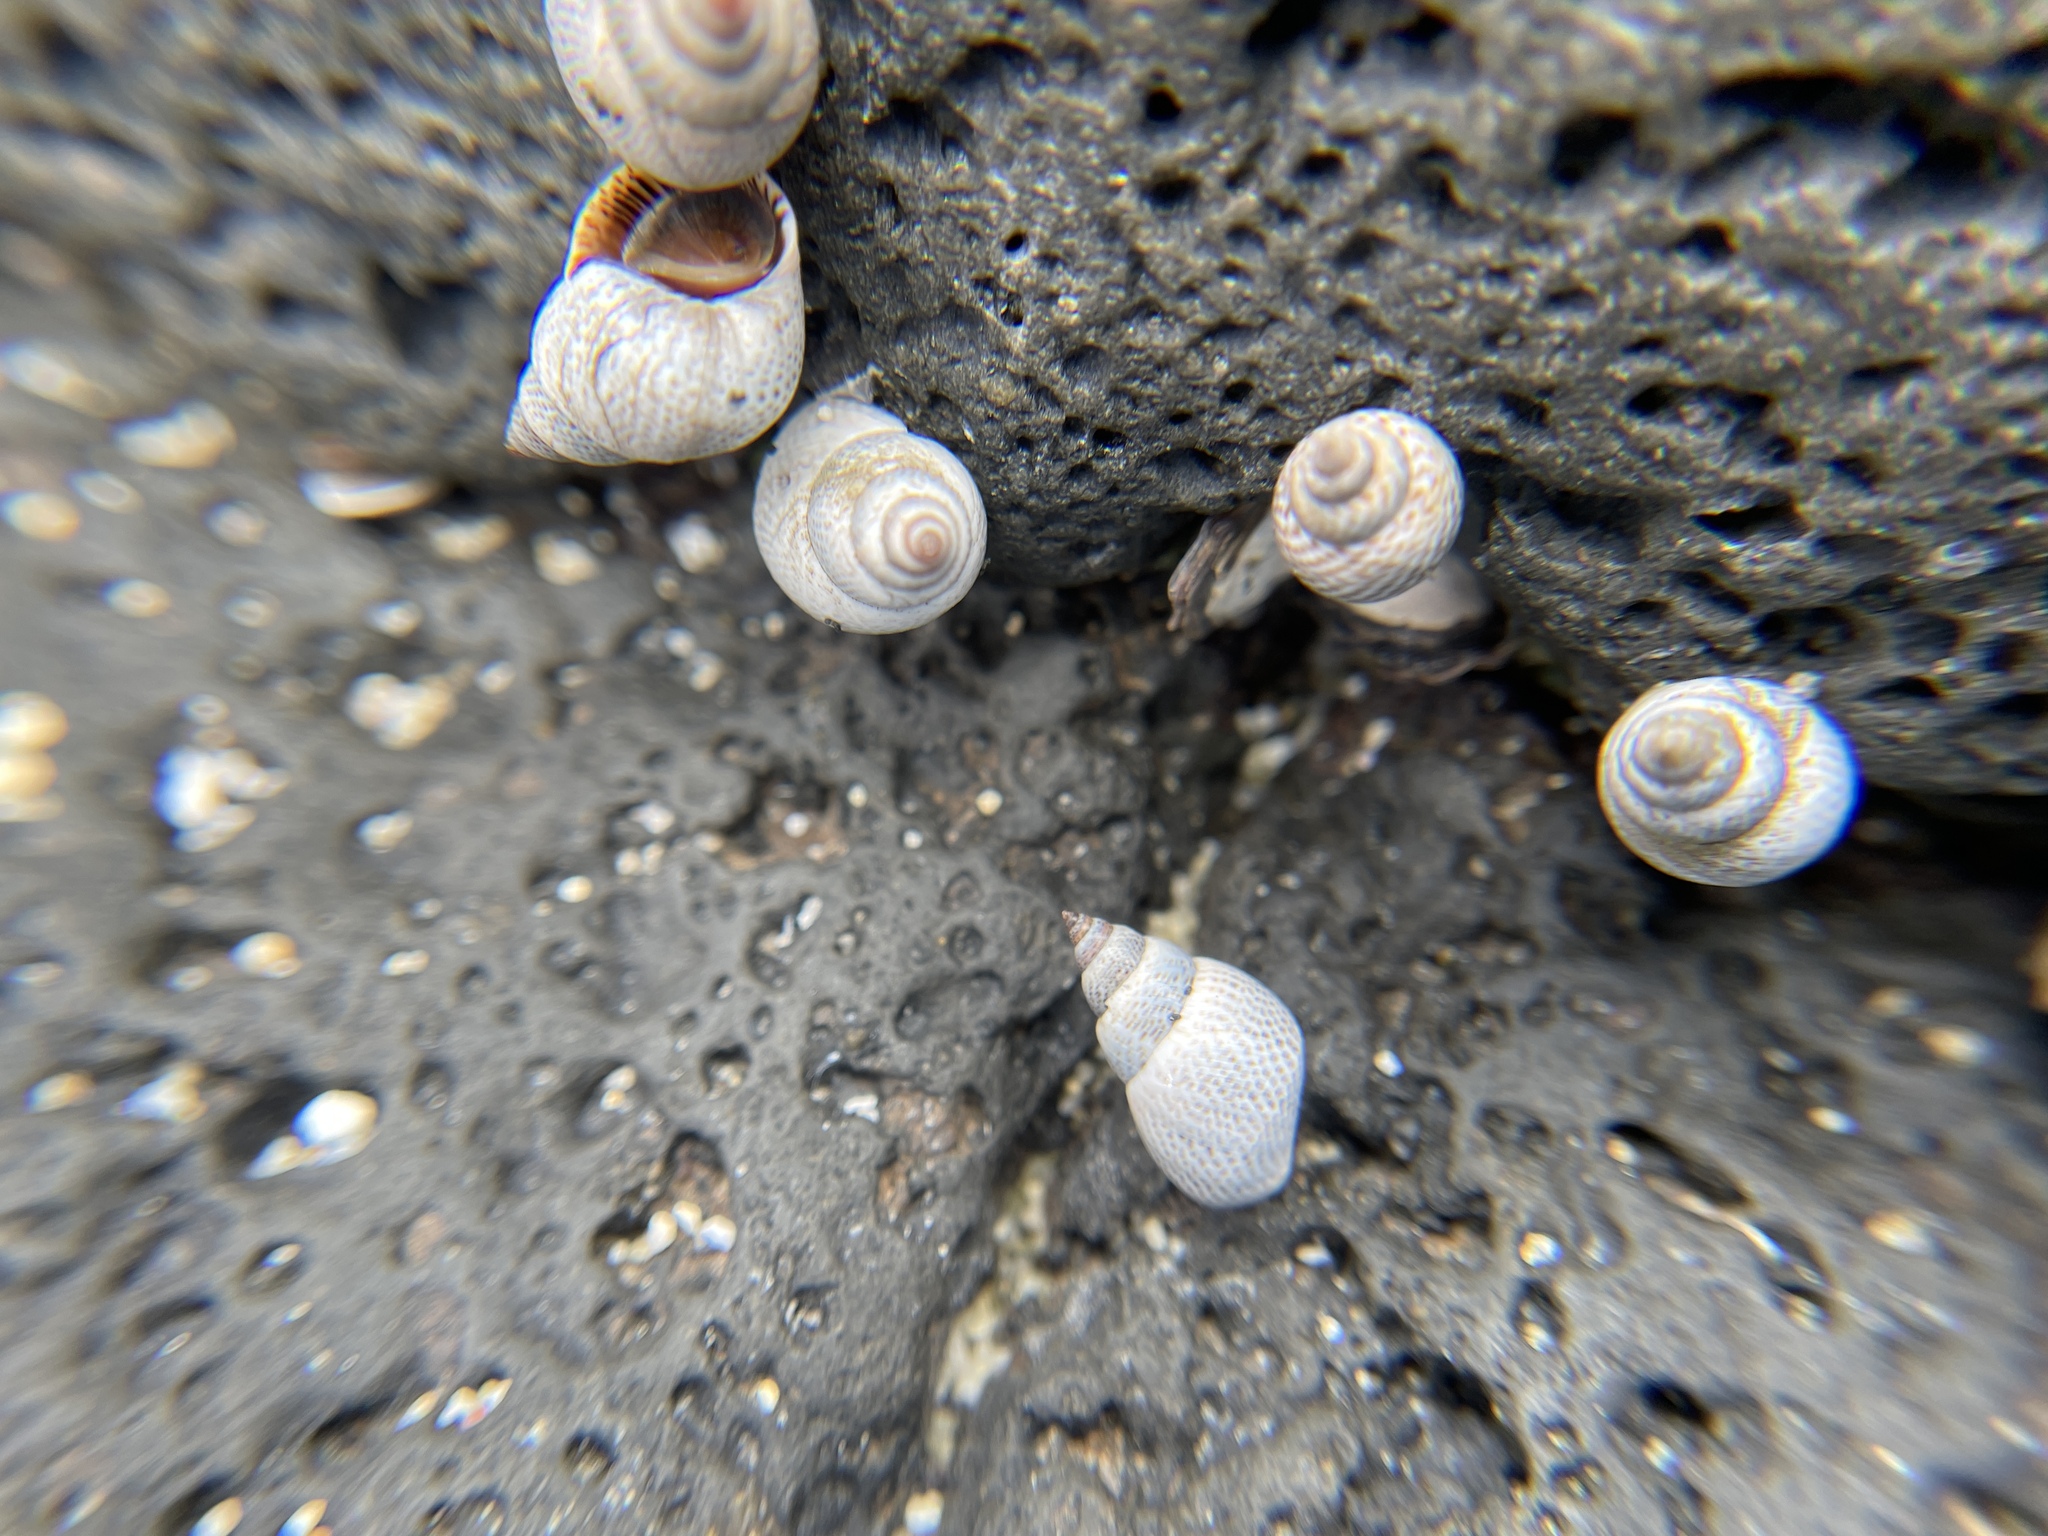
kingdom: Animalia
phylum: Mollusca
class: Gastropoda
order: Littorinimorpha
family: Littorinidae
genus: Littoraria
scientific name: Littoraria pintado
